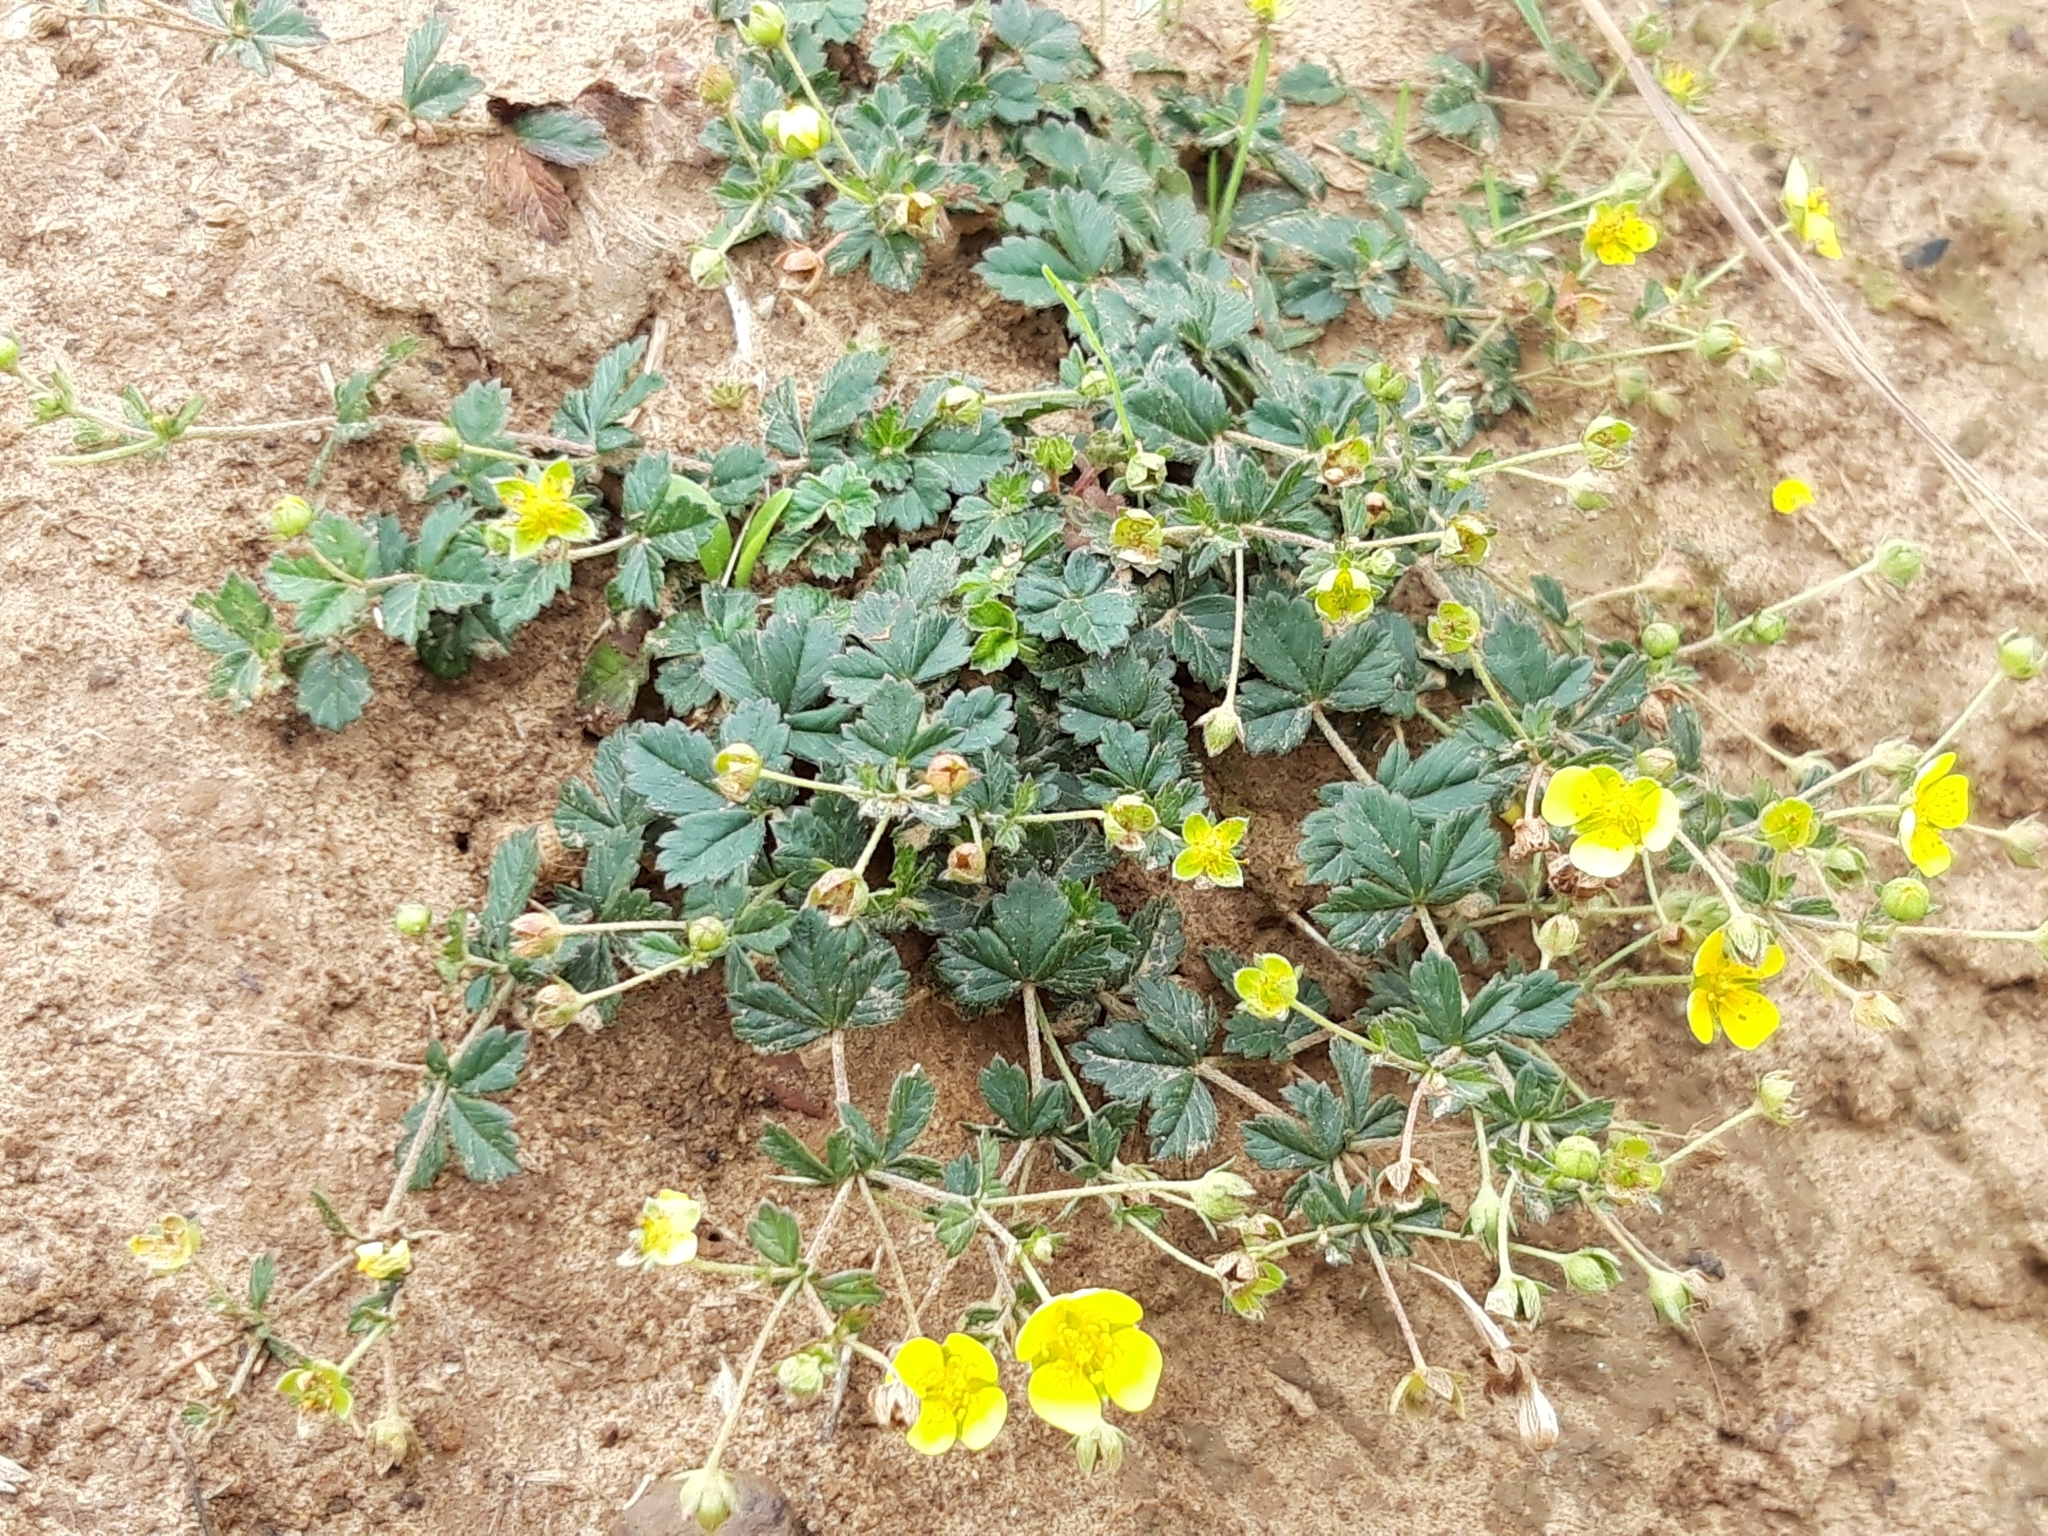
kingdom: Plantae
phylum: Tracheophyta
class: Magnoliopsida
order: Rosales
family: Rosaceae
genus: Potentilla
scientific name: Potentilla erecta
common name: Tormentil
